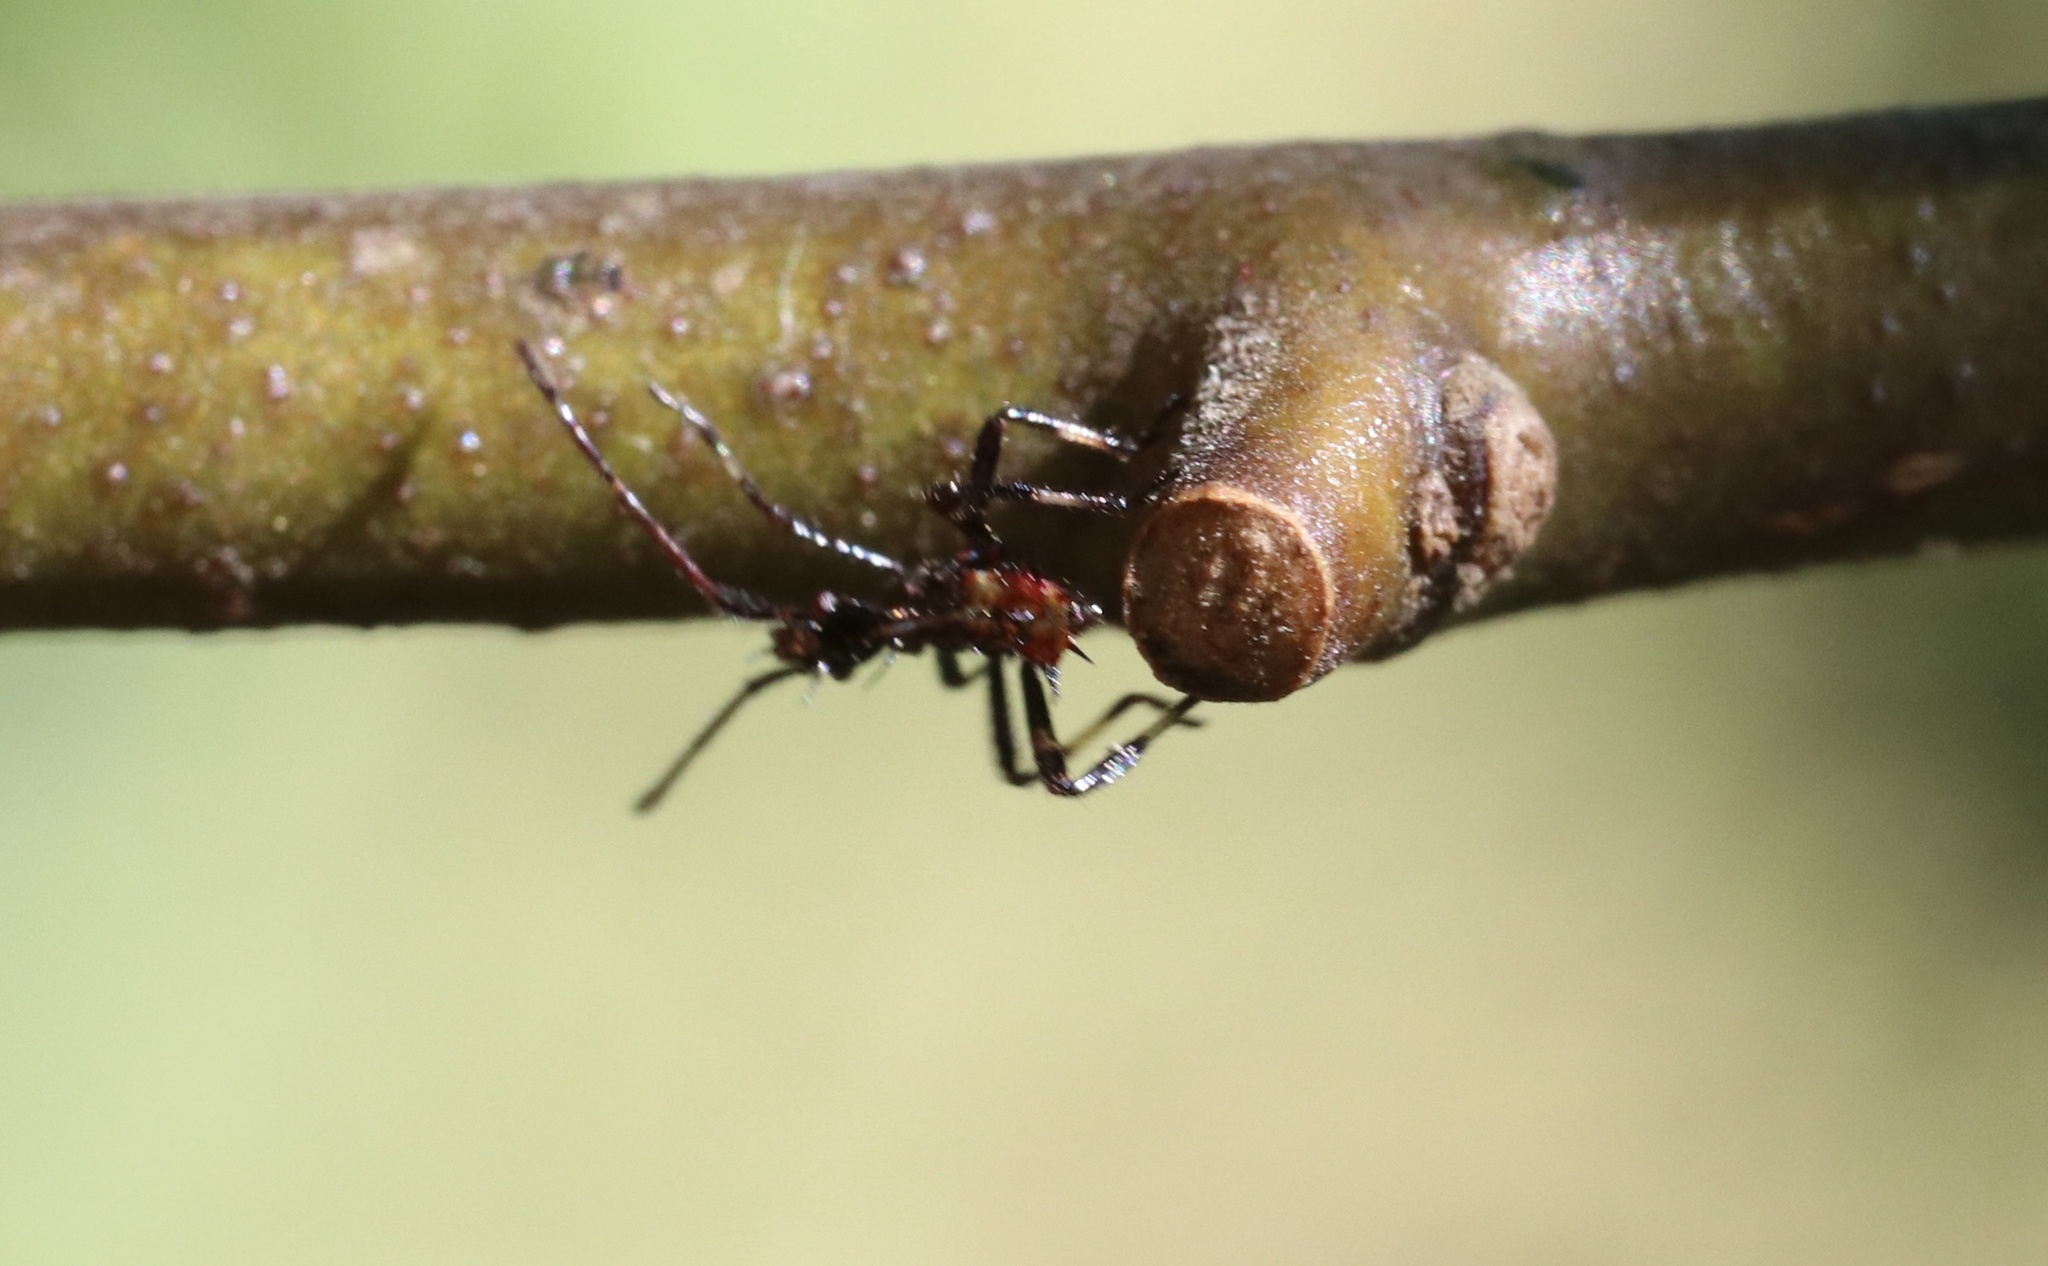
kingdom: Animalia
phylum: Arthropoda
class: Insecta
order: Hemiptera
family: Coreidae
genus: Leptoglossus
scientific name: Leptoglossus chilensis
